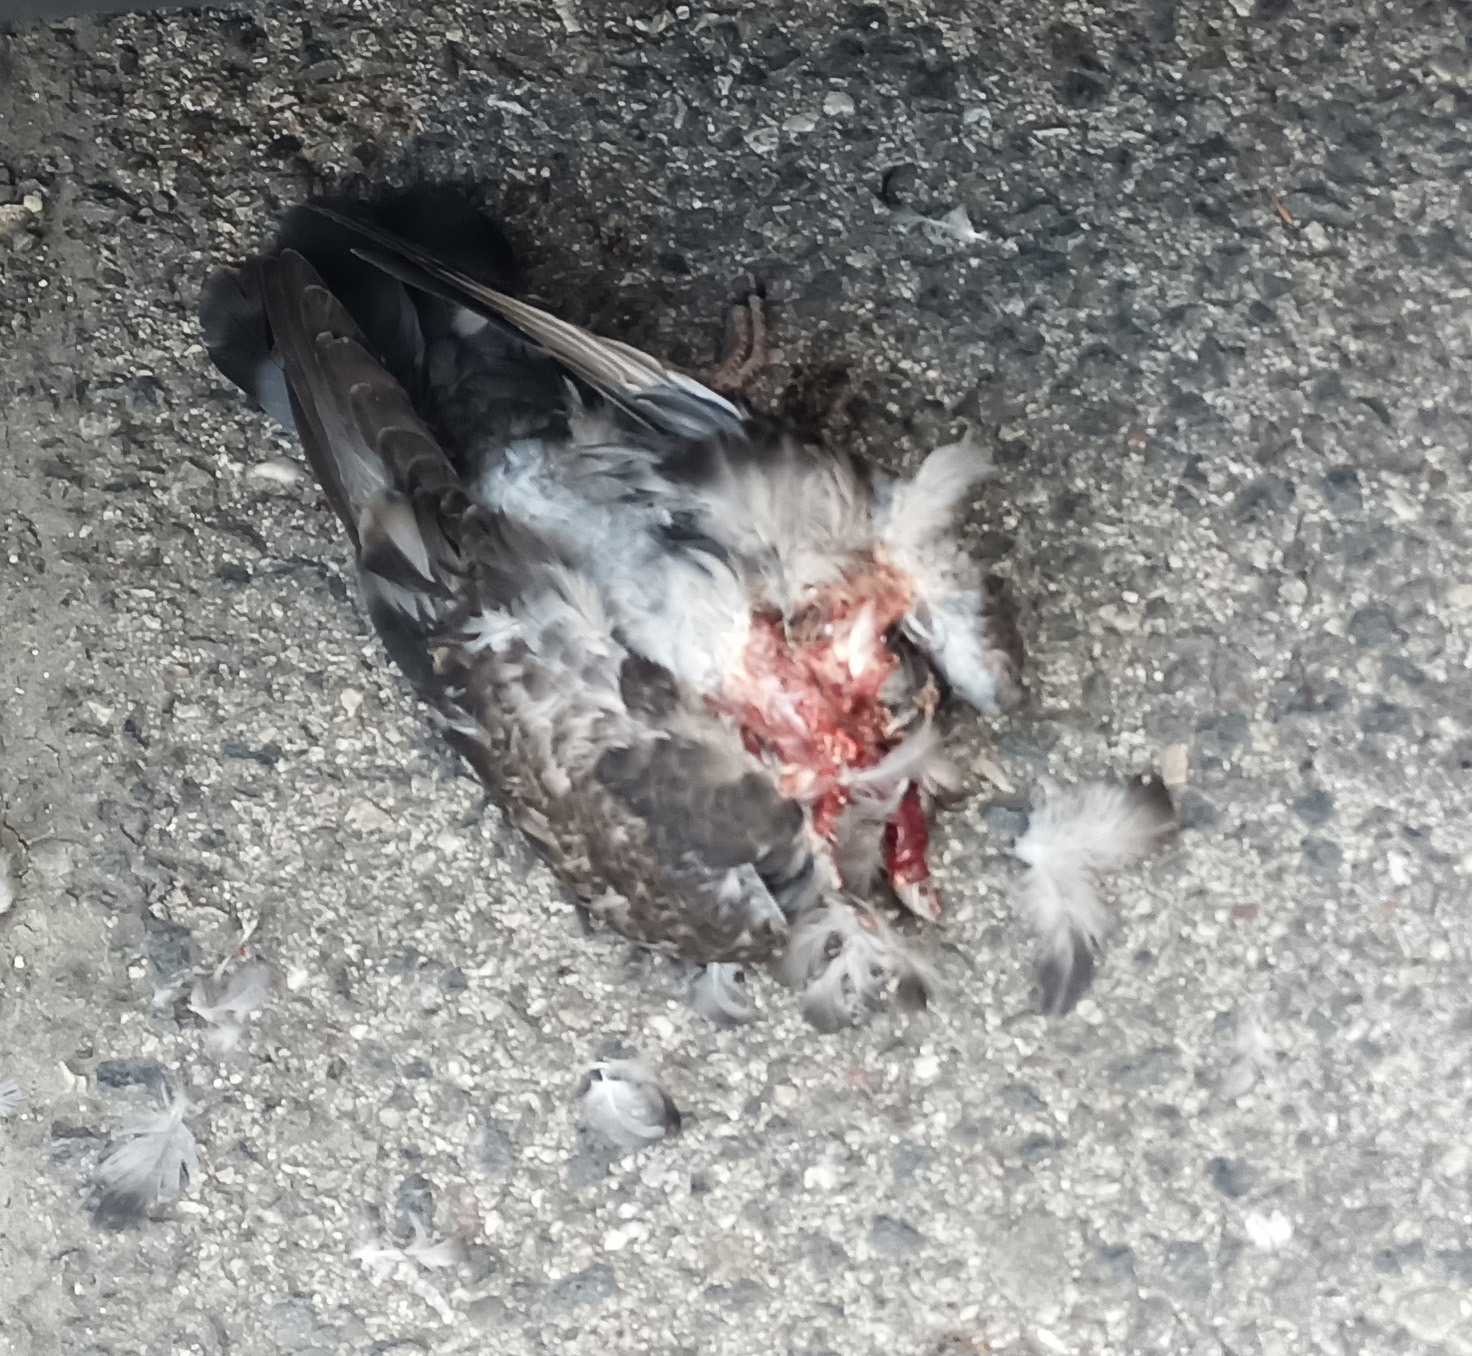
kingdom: Animalia
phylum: Chordata
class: Aves
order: Columbiformes
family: Columbidae
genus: Columba
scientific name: Columba livia
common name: Rock pigeon
